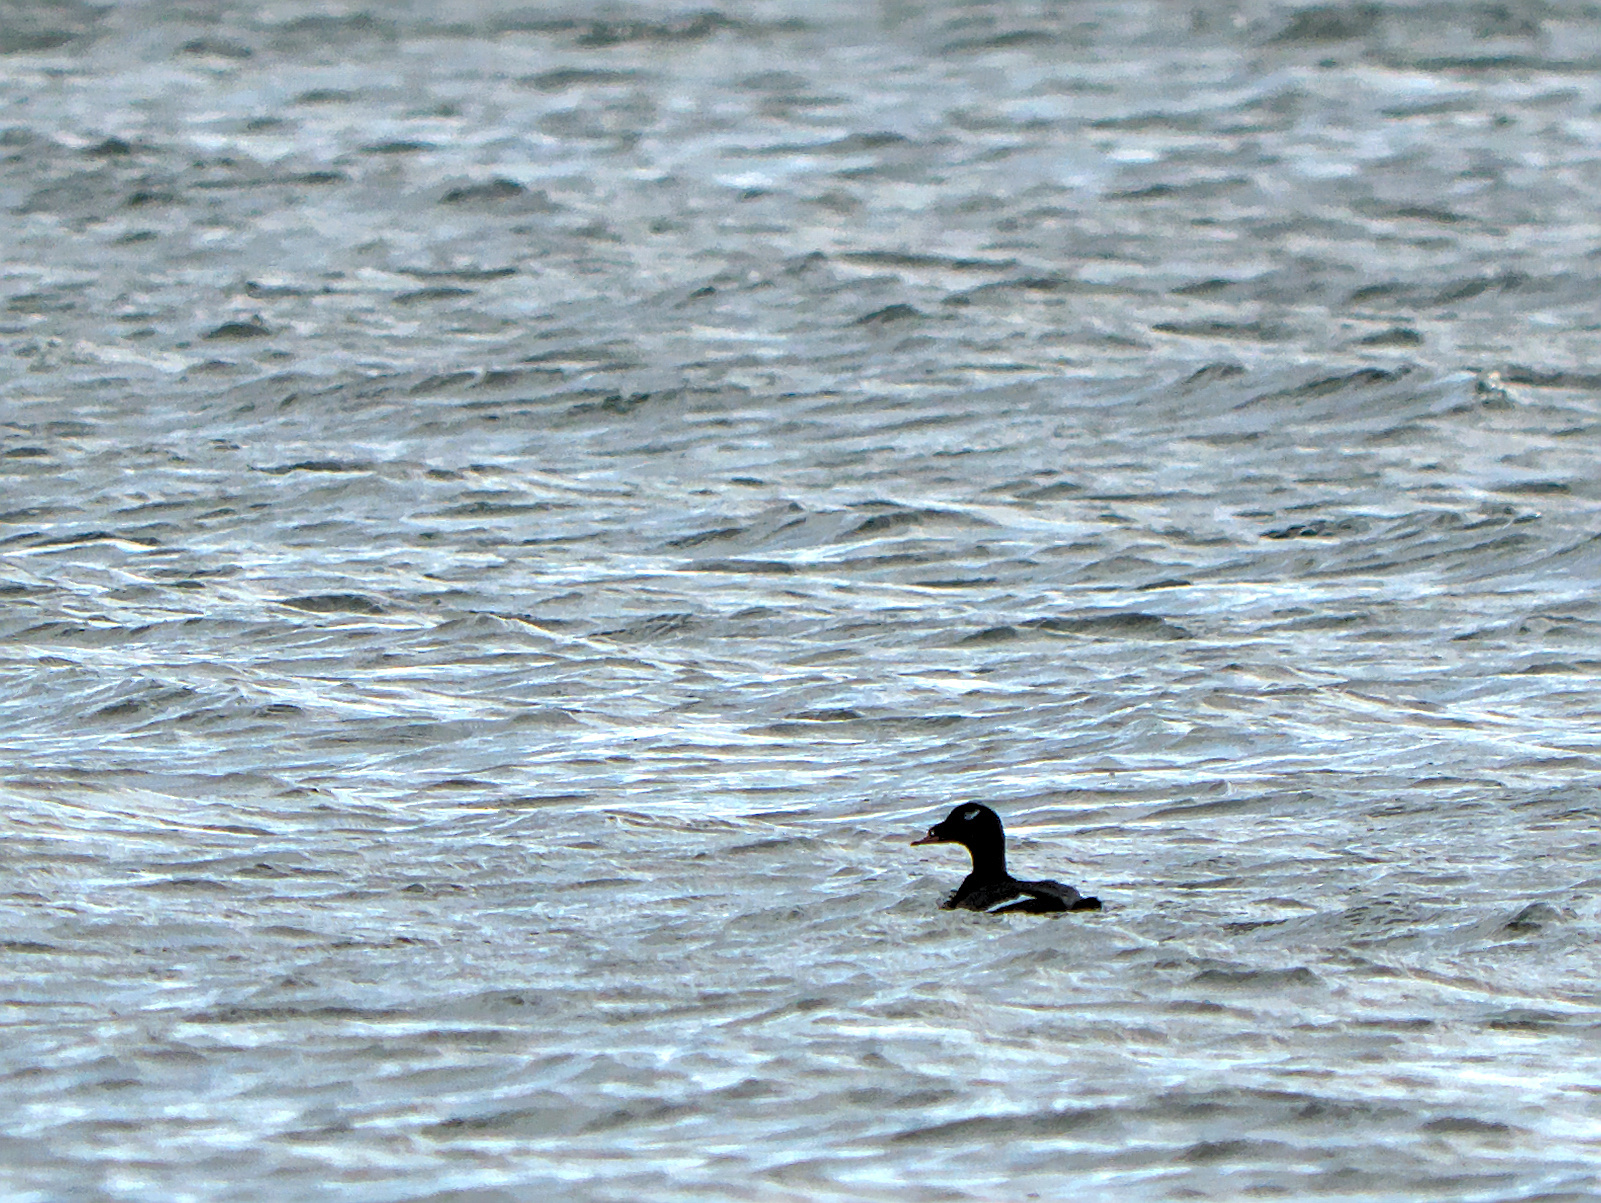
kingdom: Animalia
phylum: Chordata
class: Aves
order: Anseriformes
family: Anatidae
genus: Melanitta
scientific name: Melanitta deglandi
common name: White-winged scoter
